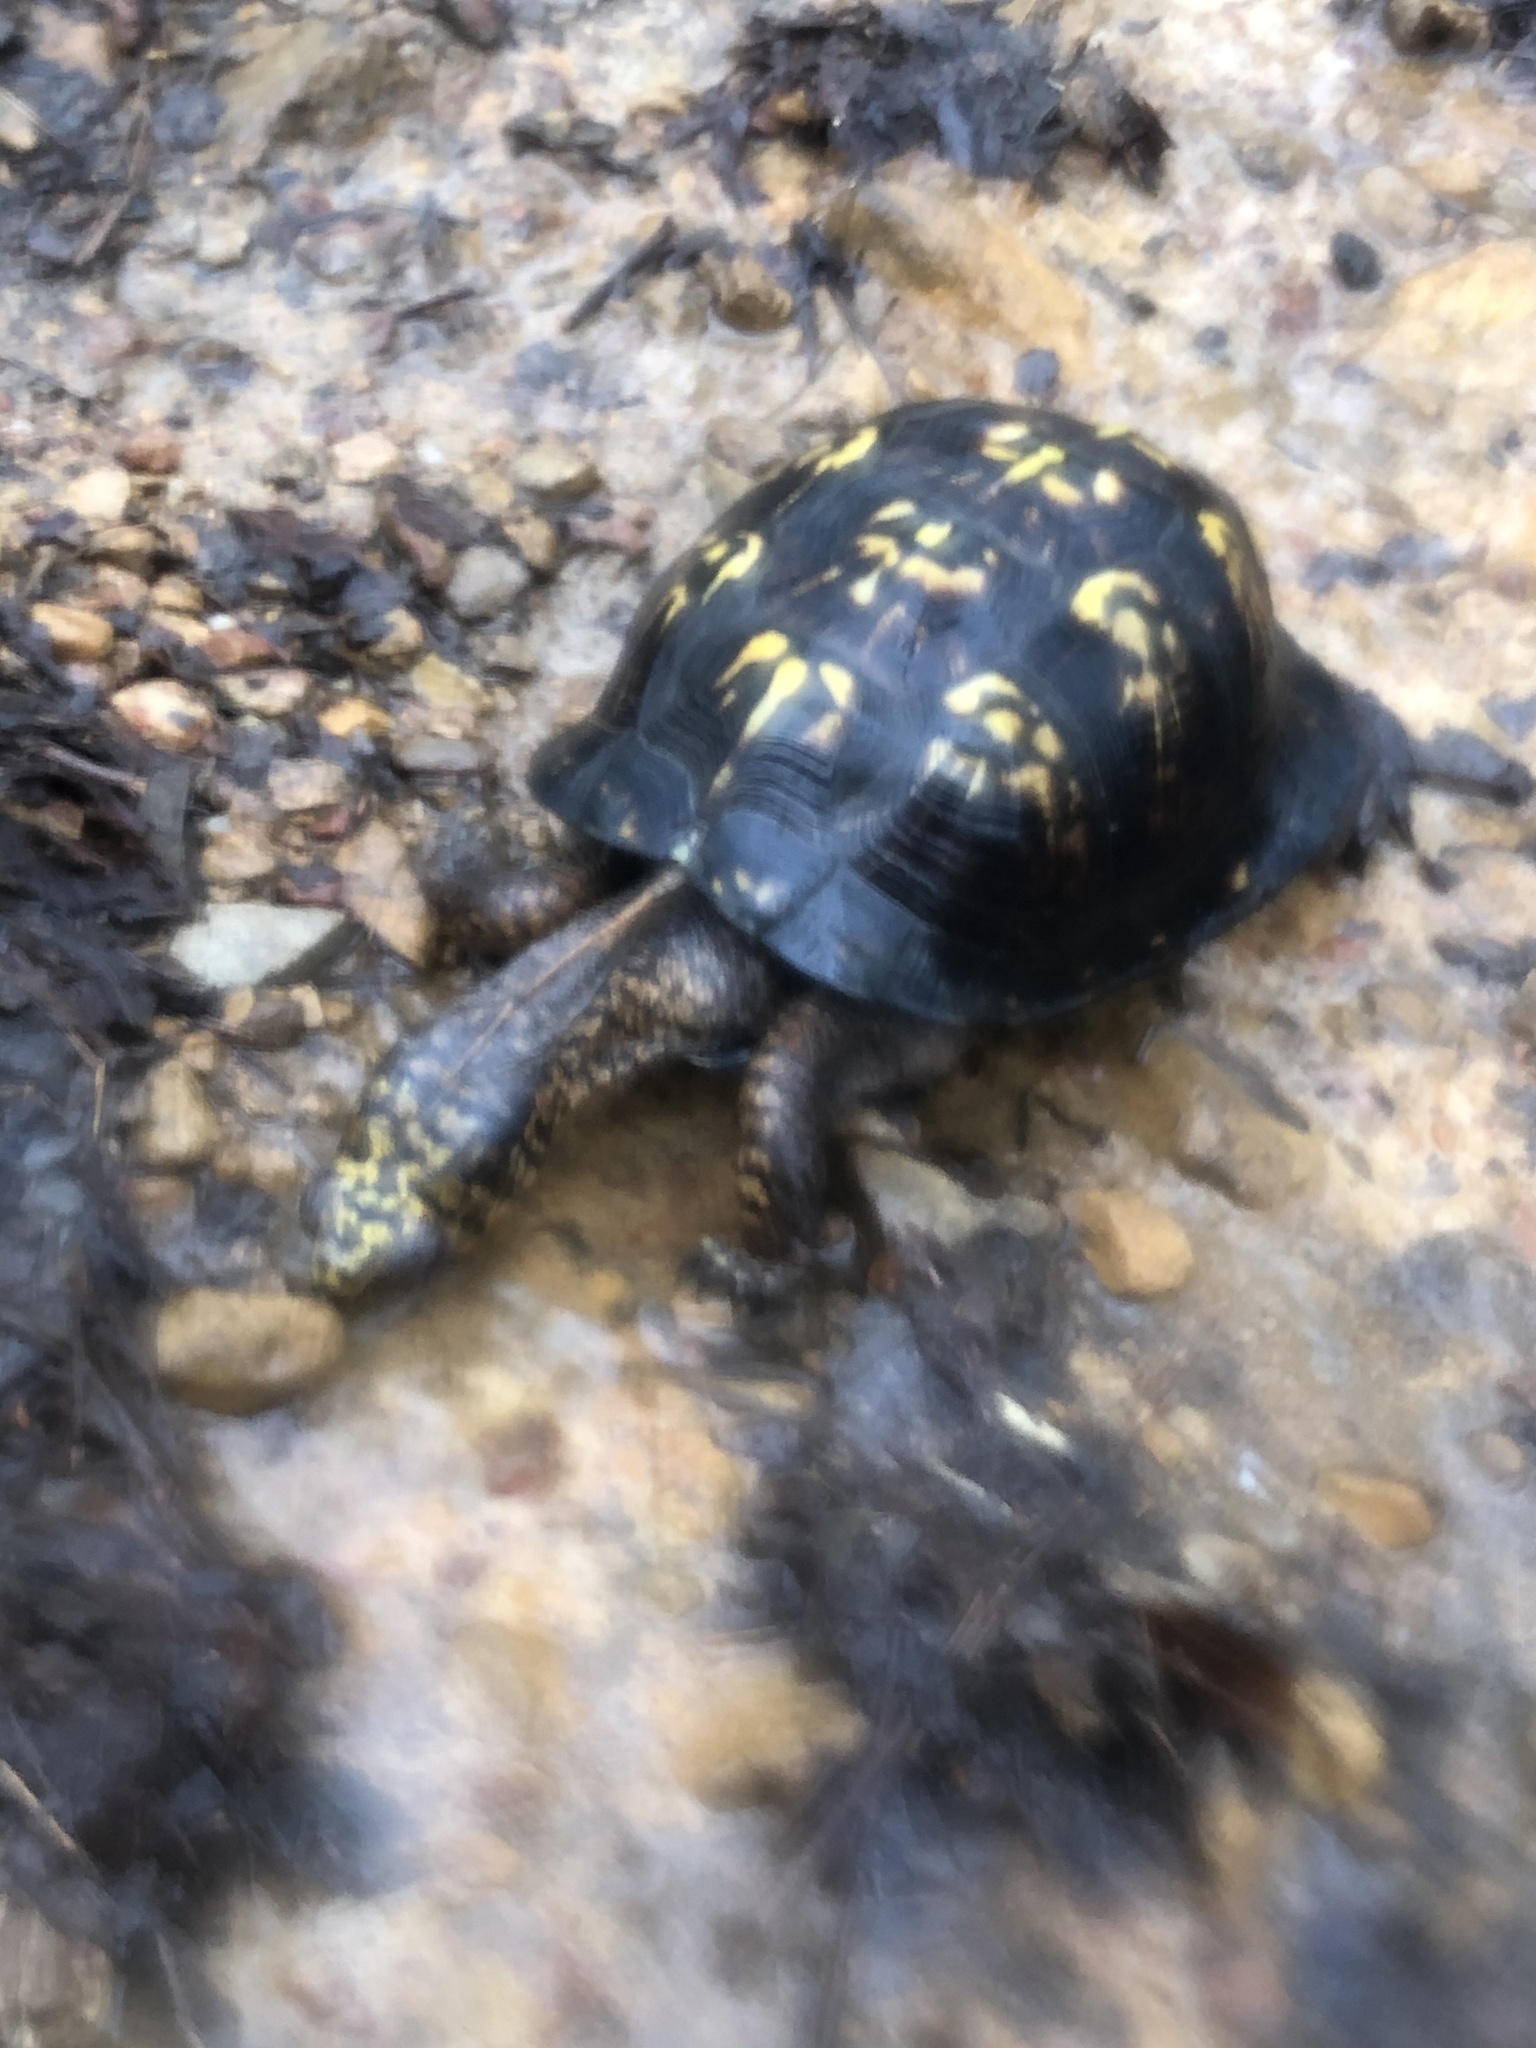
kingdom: Animalia
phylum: Chordata
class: Testudines
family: Emydidae
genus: Terrapene
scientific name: Terrapene carolina
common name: Common box turtle
